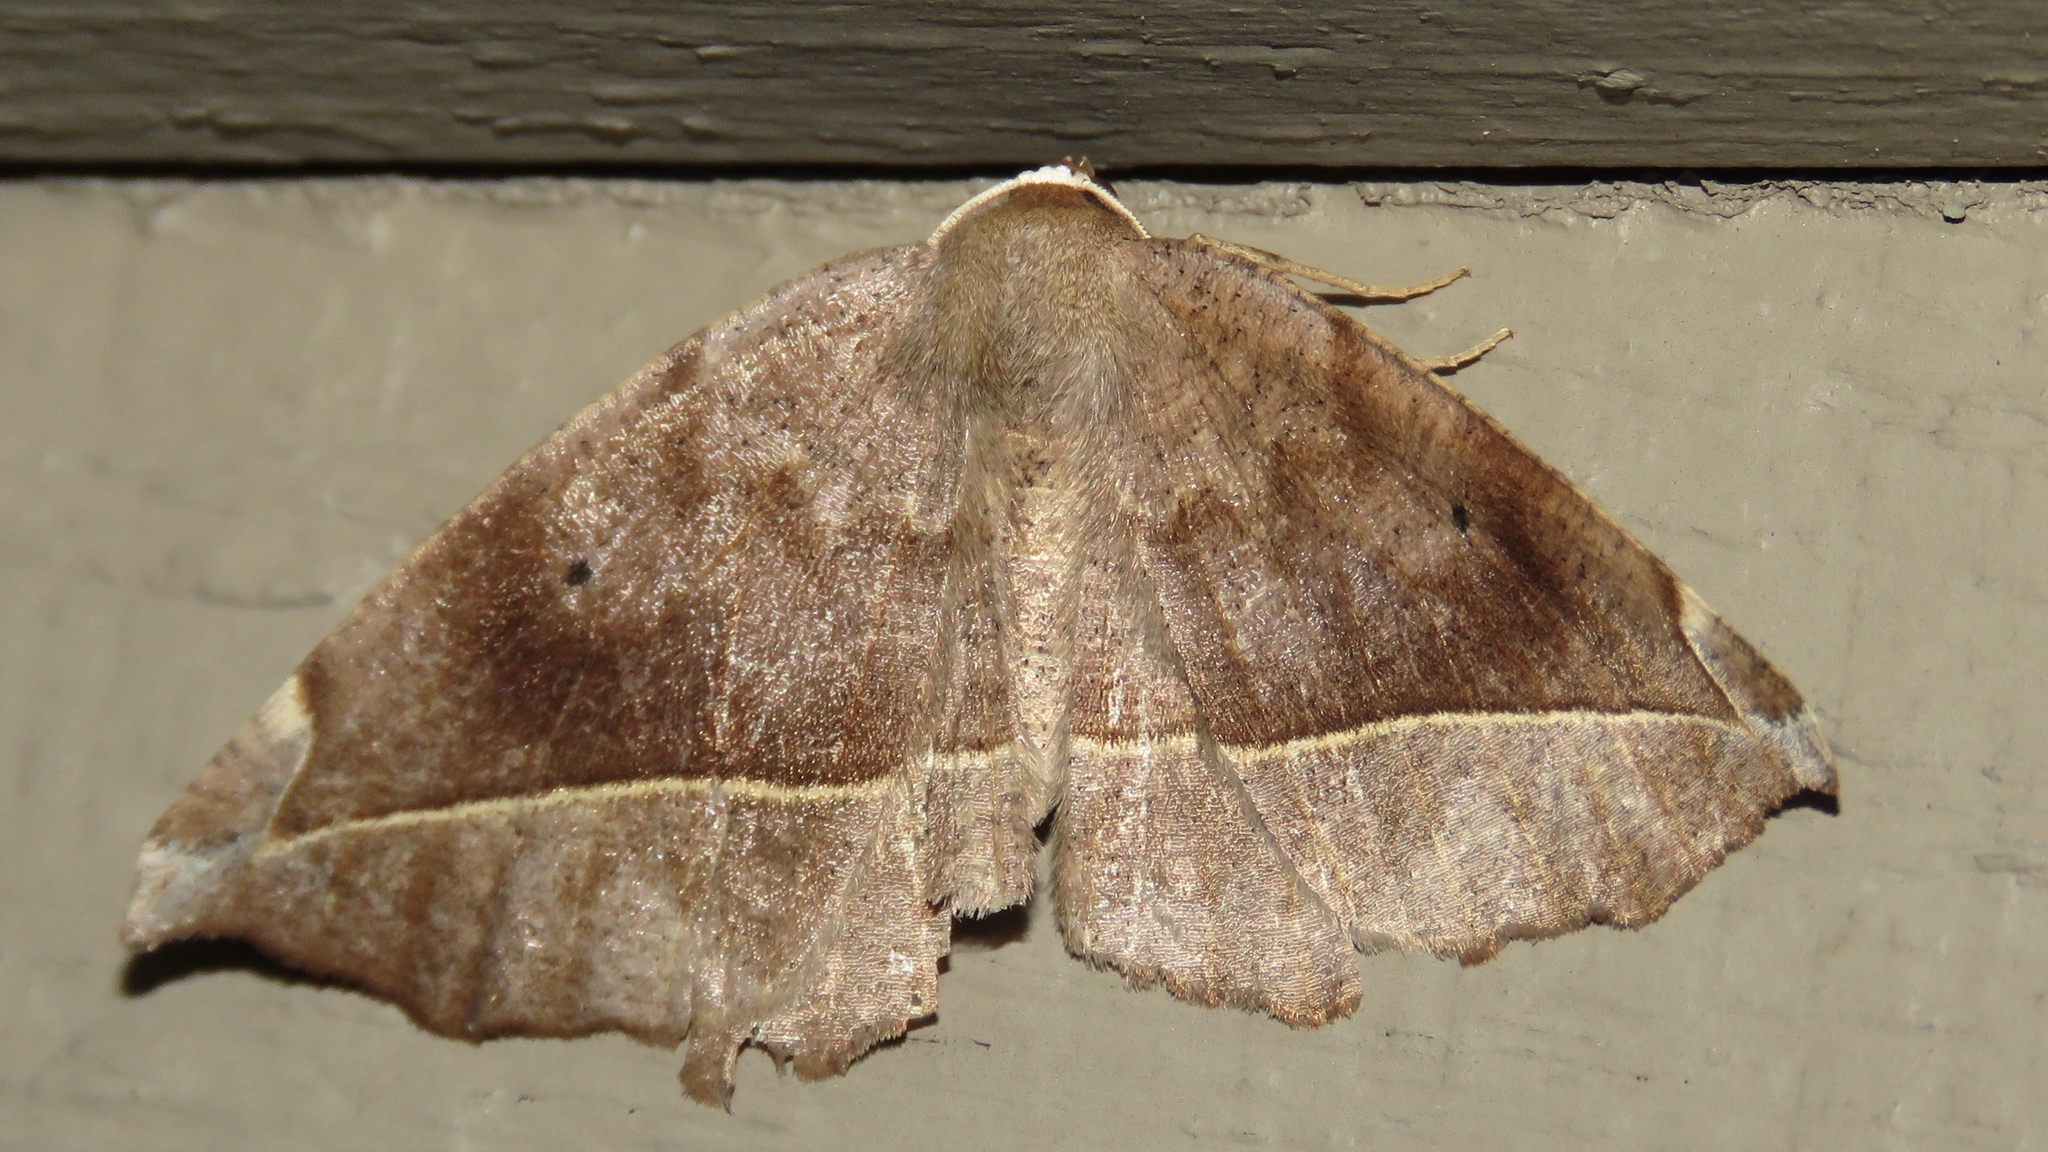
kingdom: Animalia
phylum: Arthropoda
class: Insecta
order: Lepidoptera
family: Geometridae
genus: Eutrapela
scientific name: Eutrapela clemataria
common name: Curved-toothed geometer
